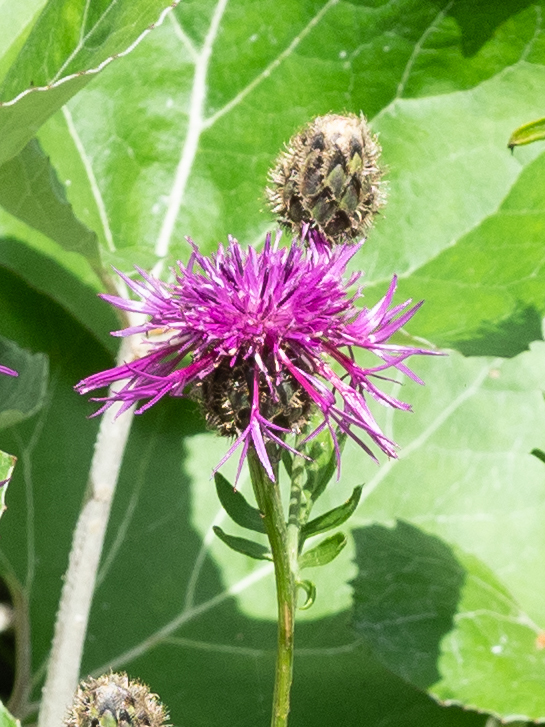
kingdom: Plantae
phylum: Tracheophyta
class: Magnoliopsida
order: Asterales
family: Asteraceae
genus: Centaurea
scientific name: Centaurea scabiosa
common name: Greater knapweed
